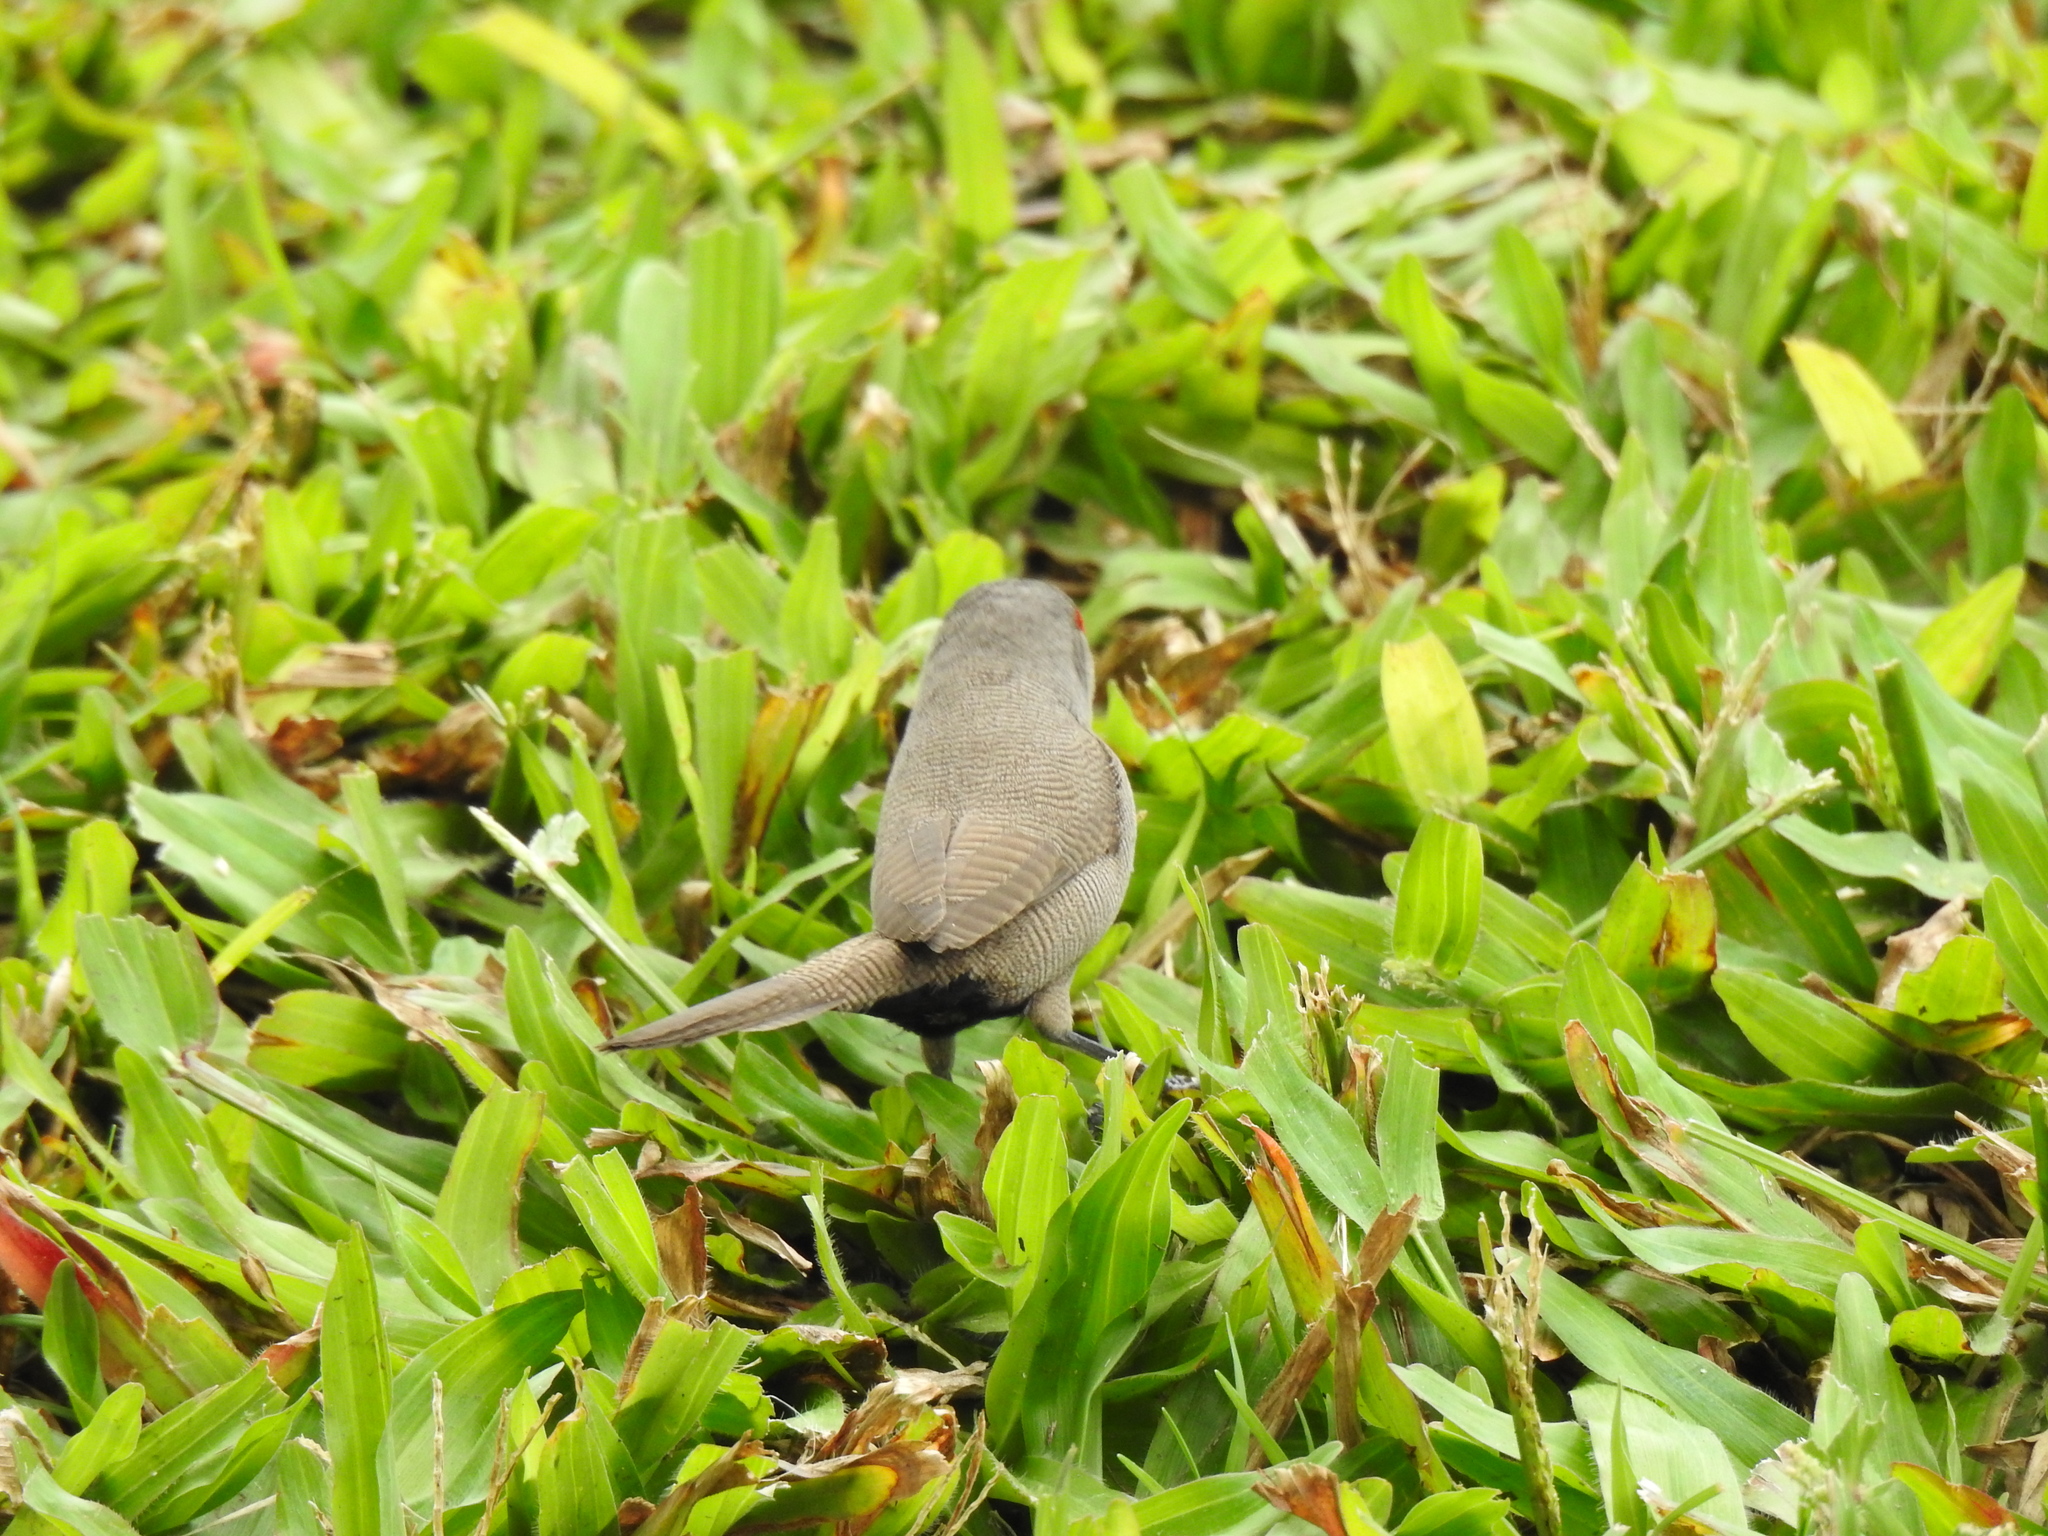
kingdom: Animalia
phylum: Chordata
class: Aves
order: Passeriformes
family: Estrildidae
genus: Estrilda
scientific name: Estrilda astrild
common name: Common waxbill
